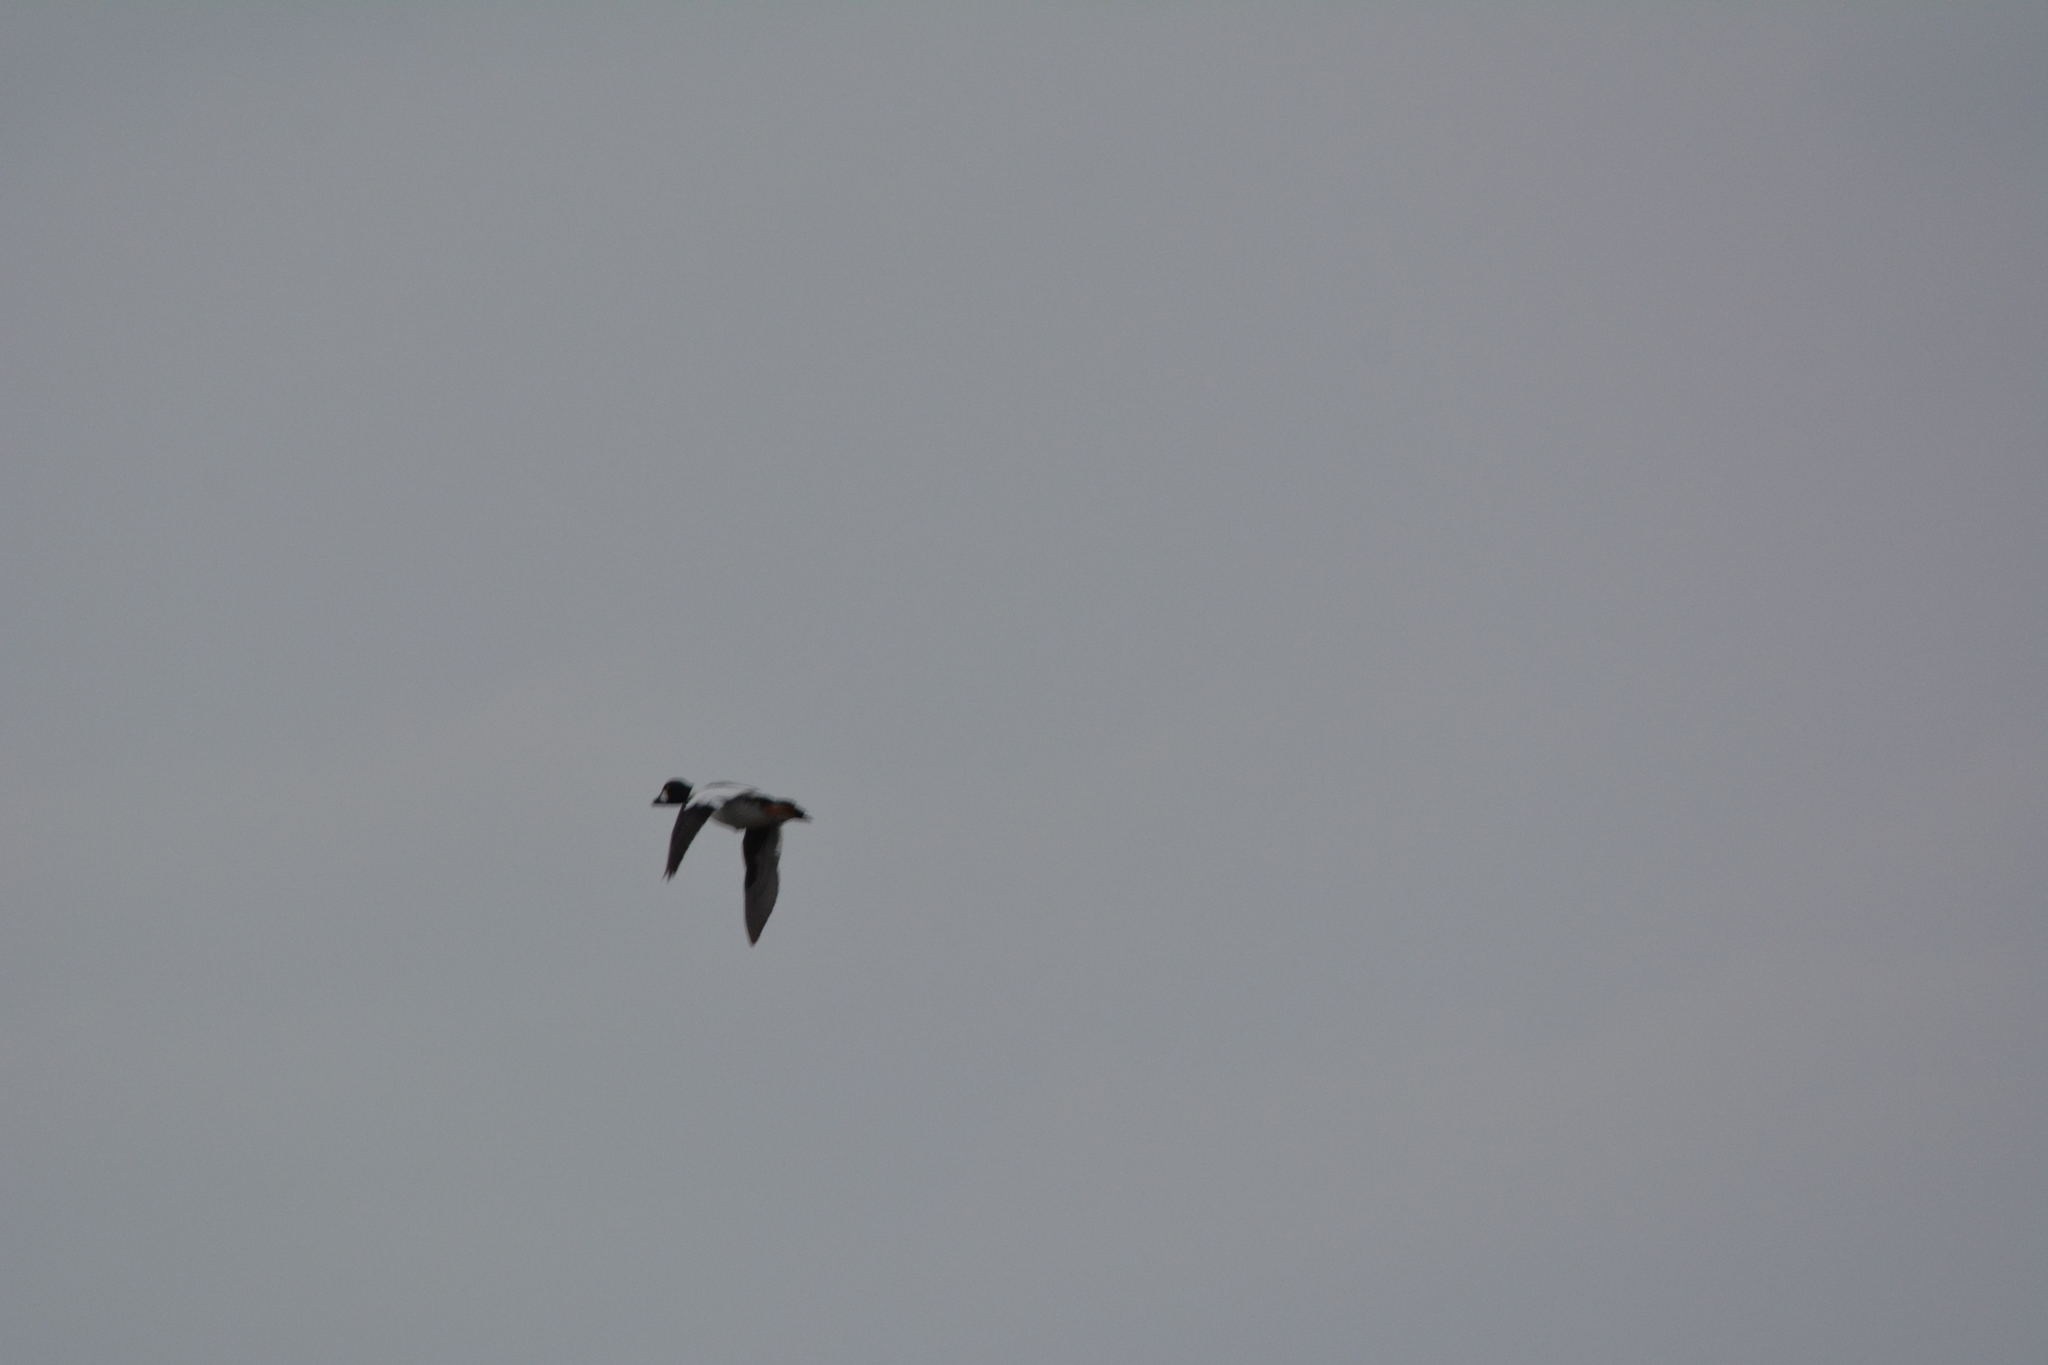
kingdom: Animalia
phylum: Chordata
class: Aves
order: Anseriformes
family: Anatidae
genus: Bucephala
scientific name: Bucephala clangula
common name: Common goldeneye
